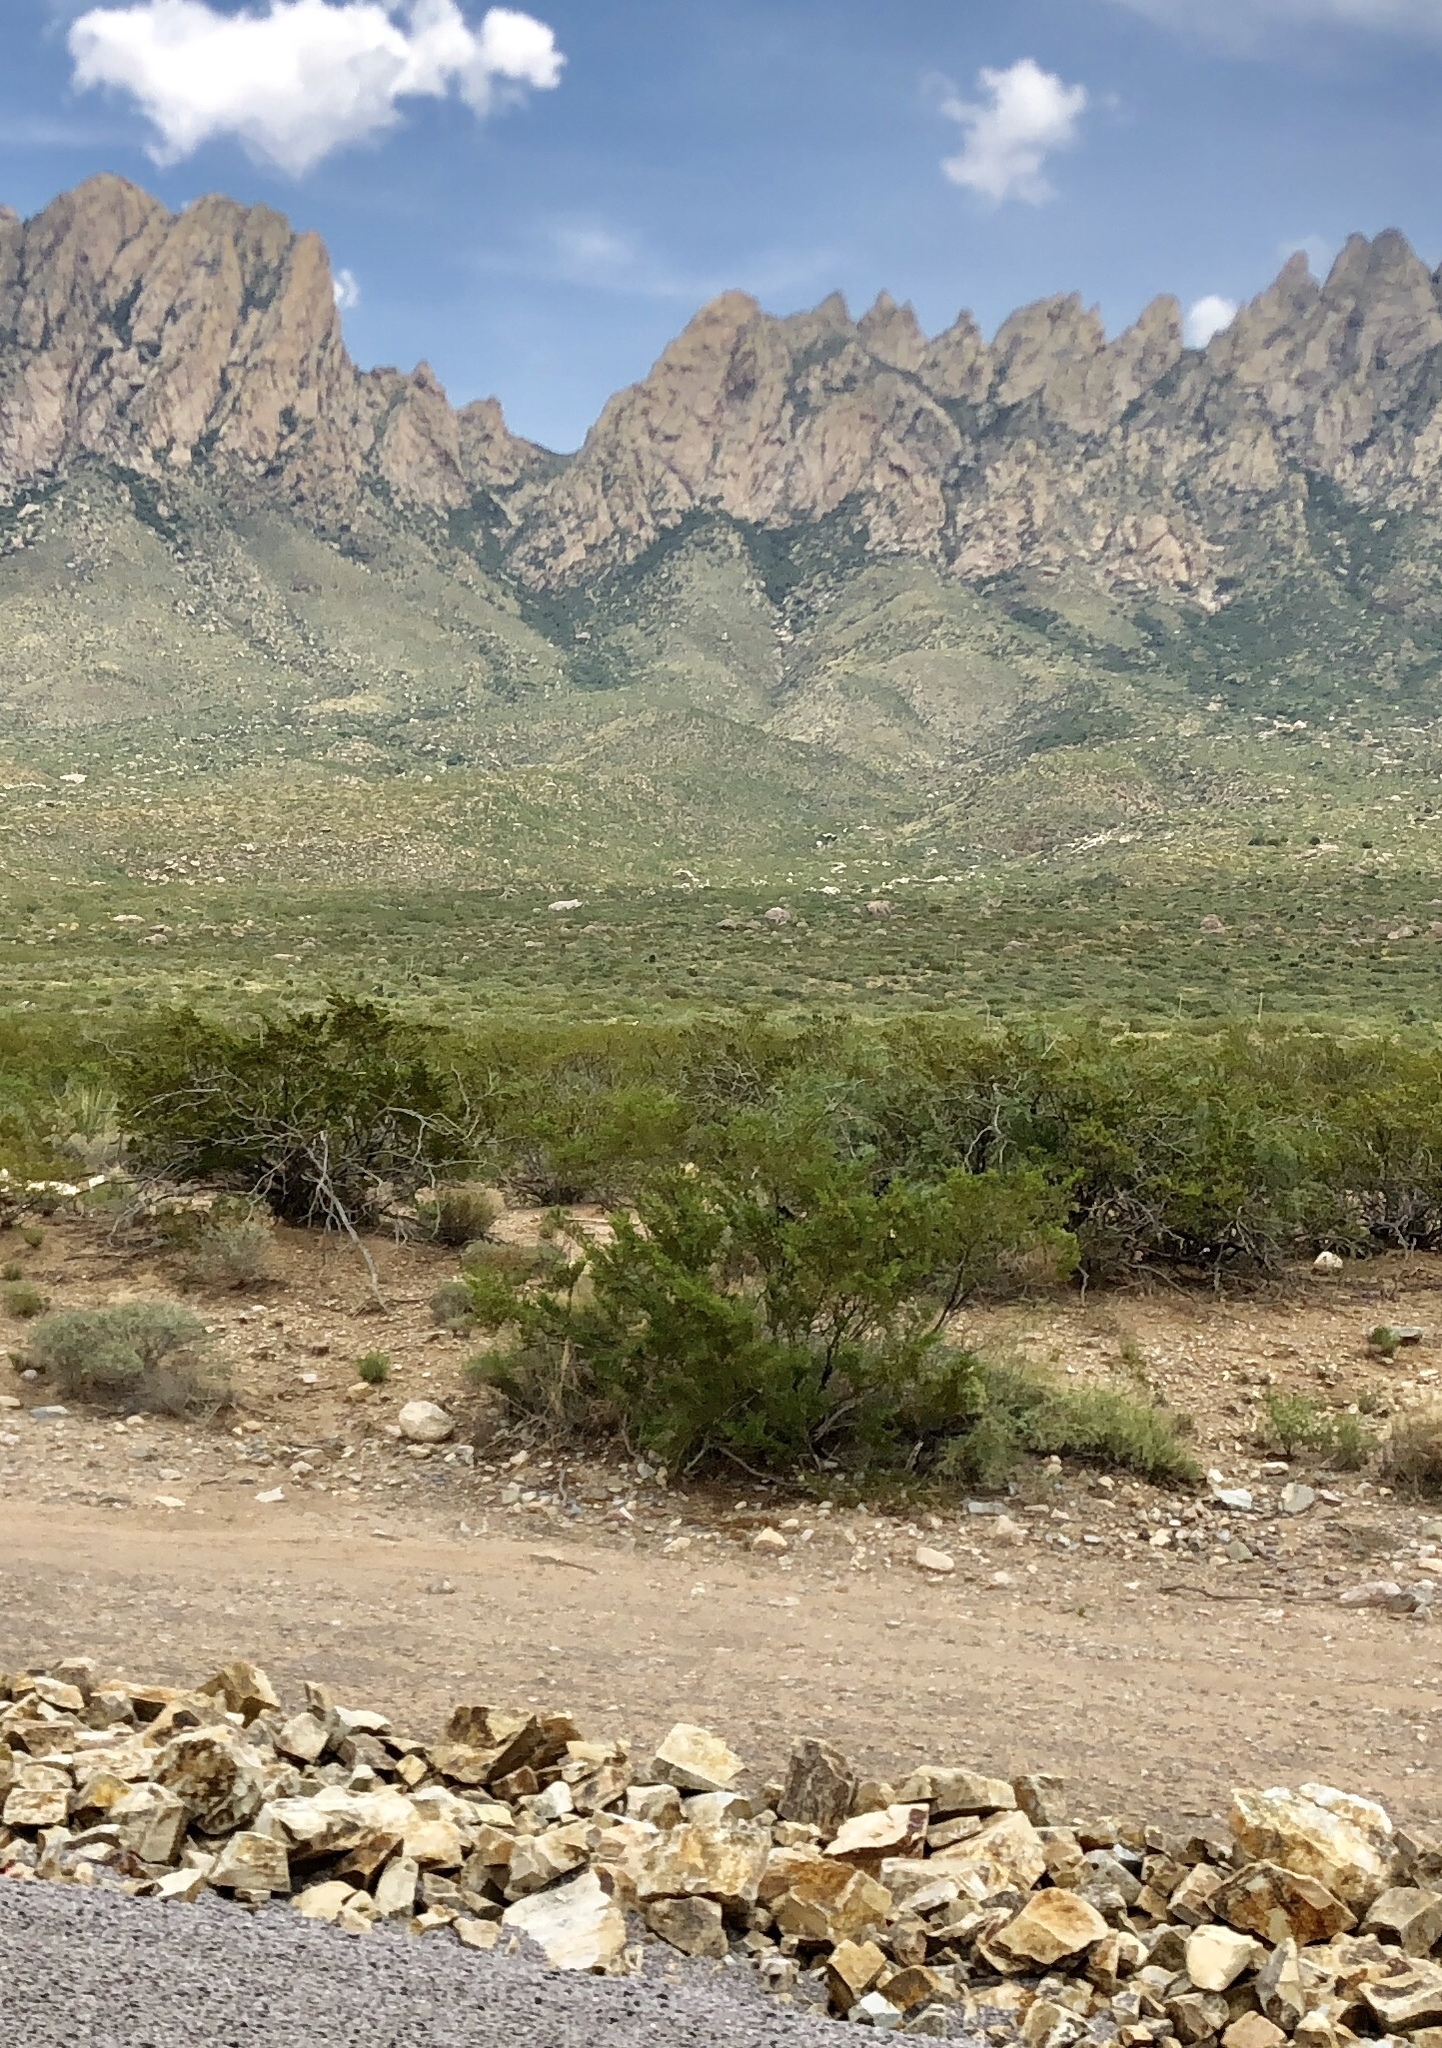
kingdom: Plantae
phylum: Tracheophyta
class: Magnoliopsida
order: Zygophyllales
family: Zygophyllaceae
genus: Larrea
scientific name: Larrea tridentata
